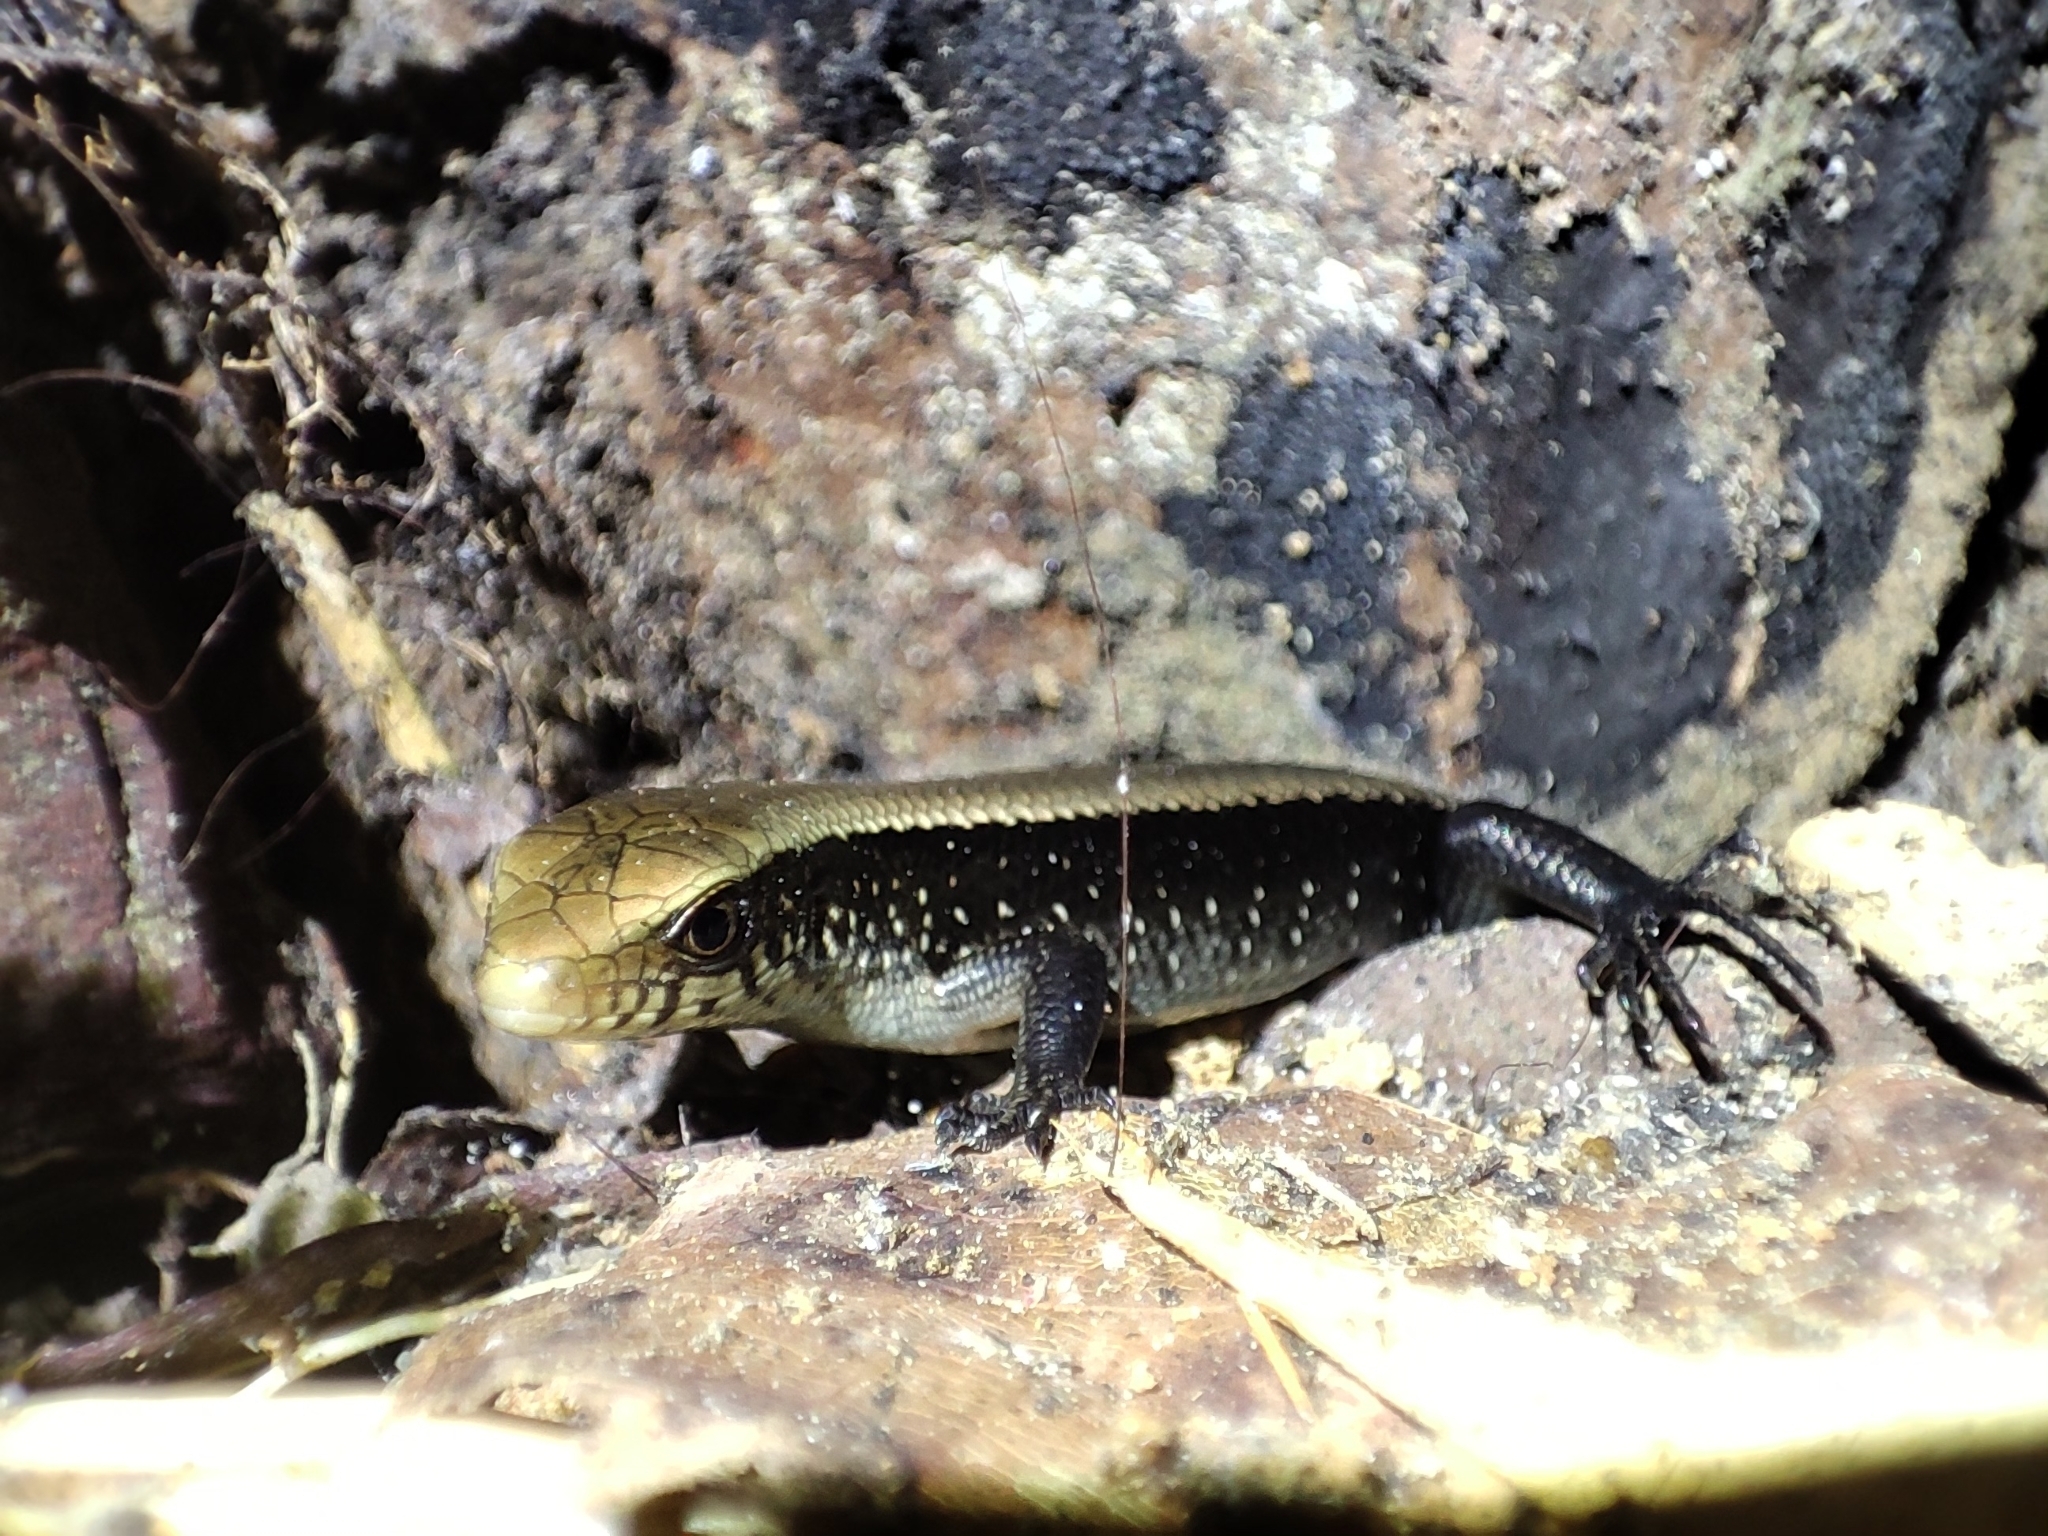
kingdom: Animalia
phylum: Chordata
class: Squamata
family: Scincidae
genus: Eutropis
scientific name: Eutropis multifasciata
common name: Common mabuya
